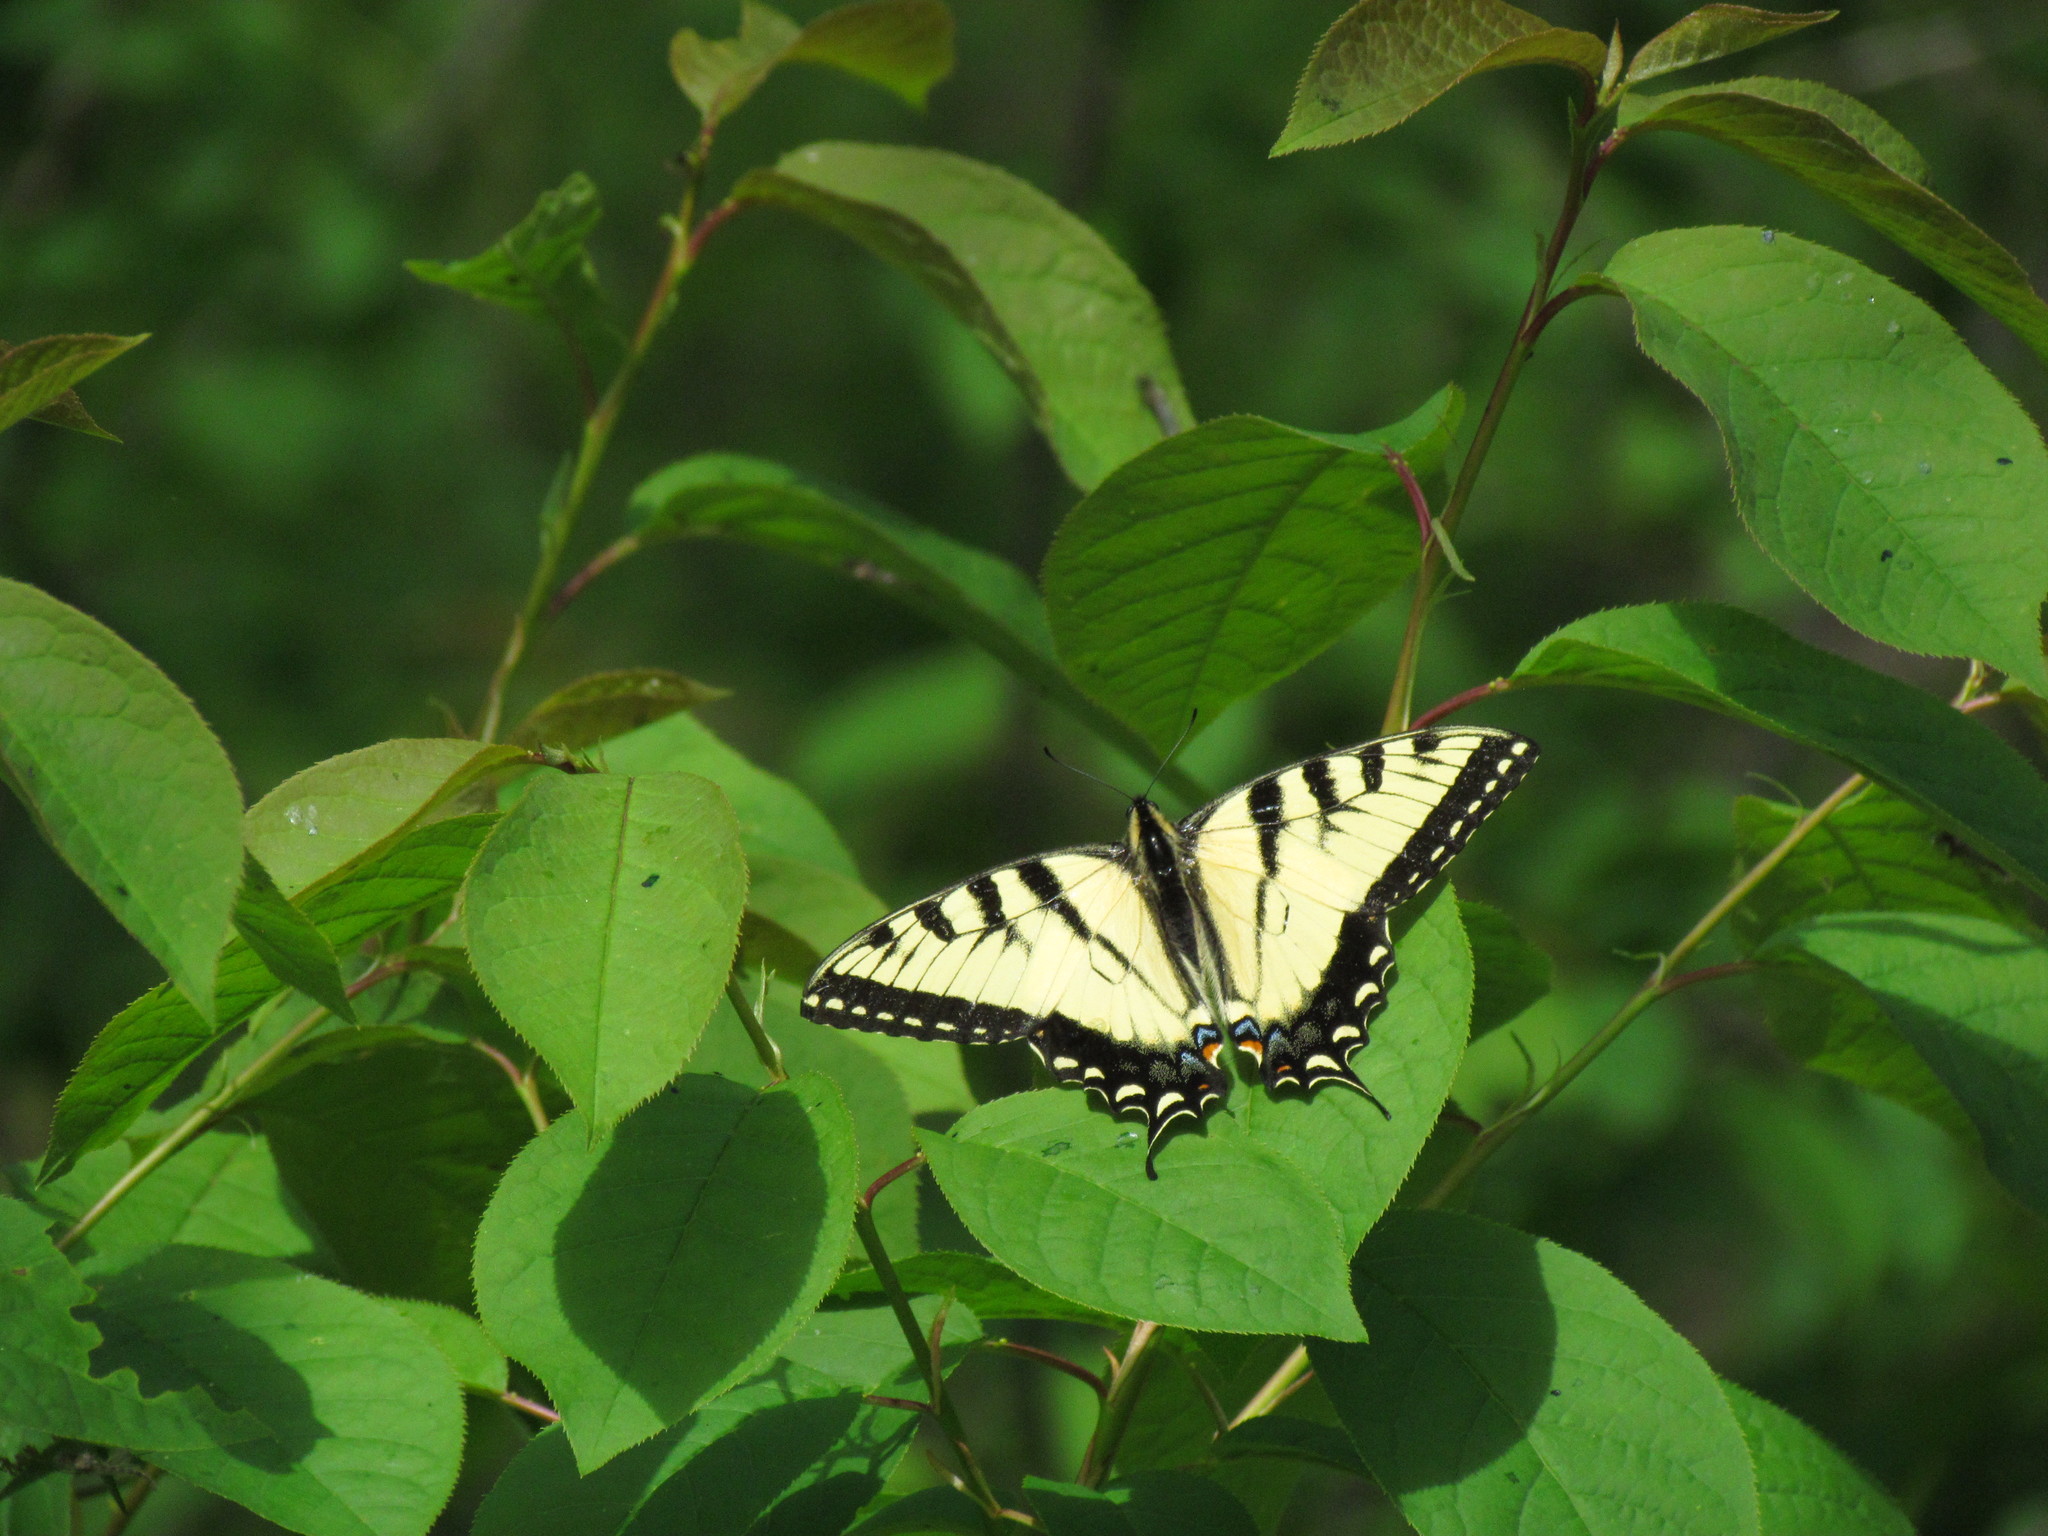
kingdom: Animalia
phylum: Arthropoda
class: Insecta
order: Lepidoptera
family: Papilionidae
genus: Papilio
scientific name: Papilio glaucus
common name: Tiger swallowtail
